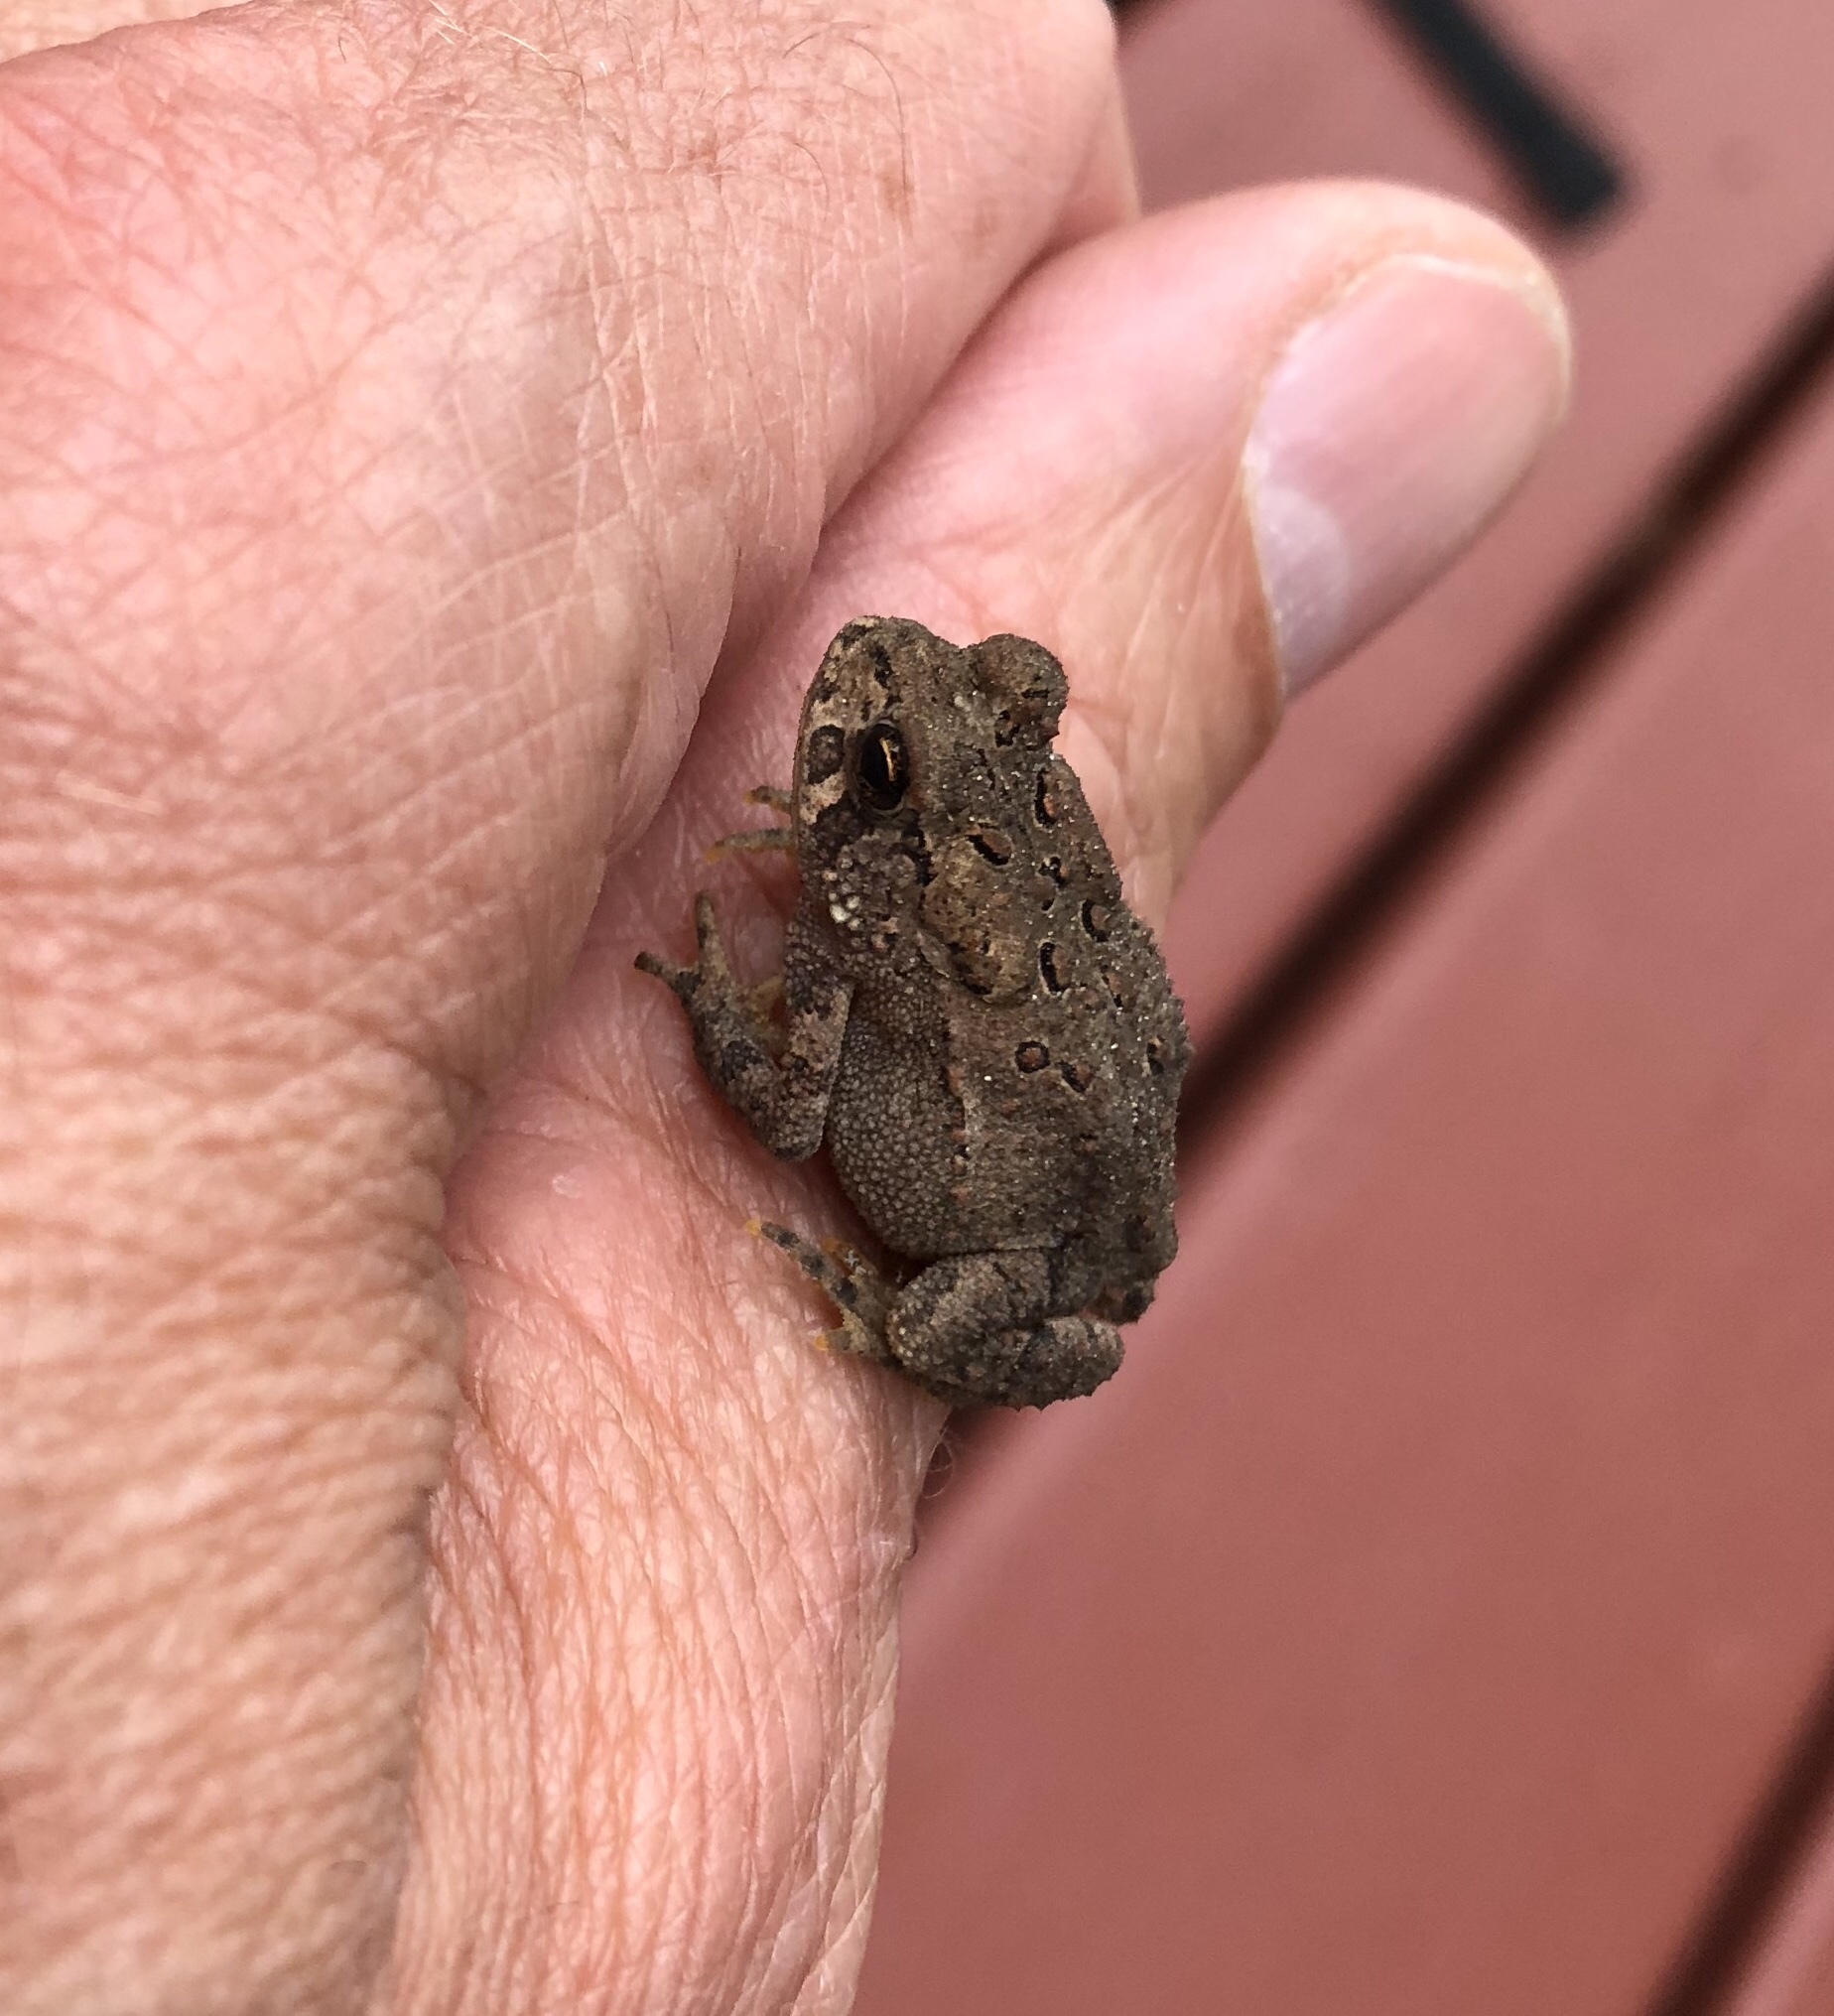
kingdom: Animalia
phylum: Chordata
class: Amphibia
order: Anura
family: Bufonidae
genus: Anaxyrus
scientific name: Anaxyrus americanus
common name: American toad
